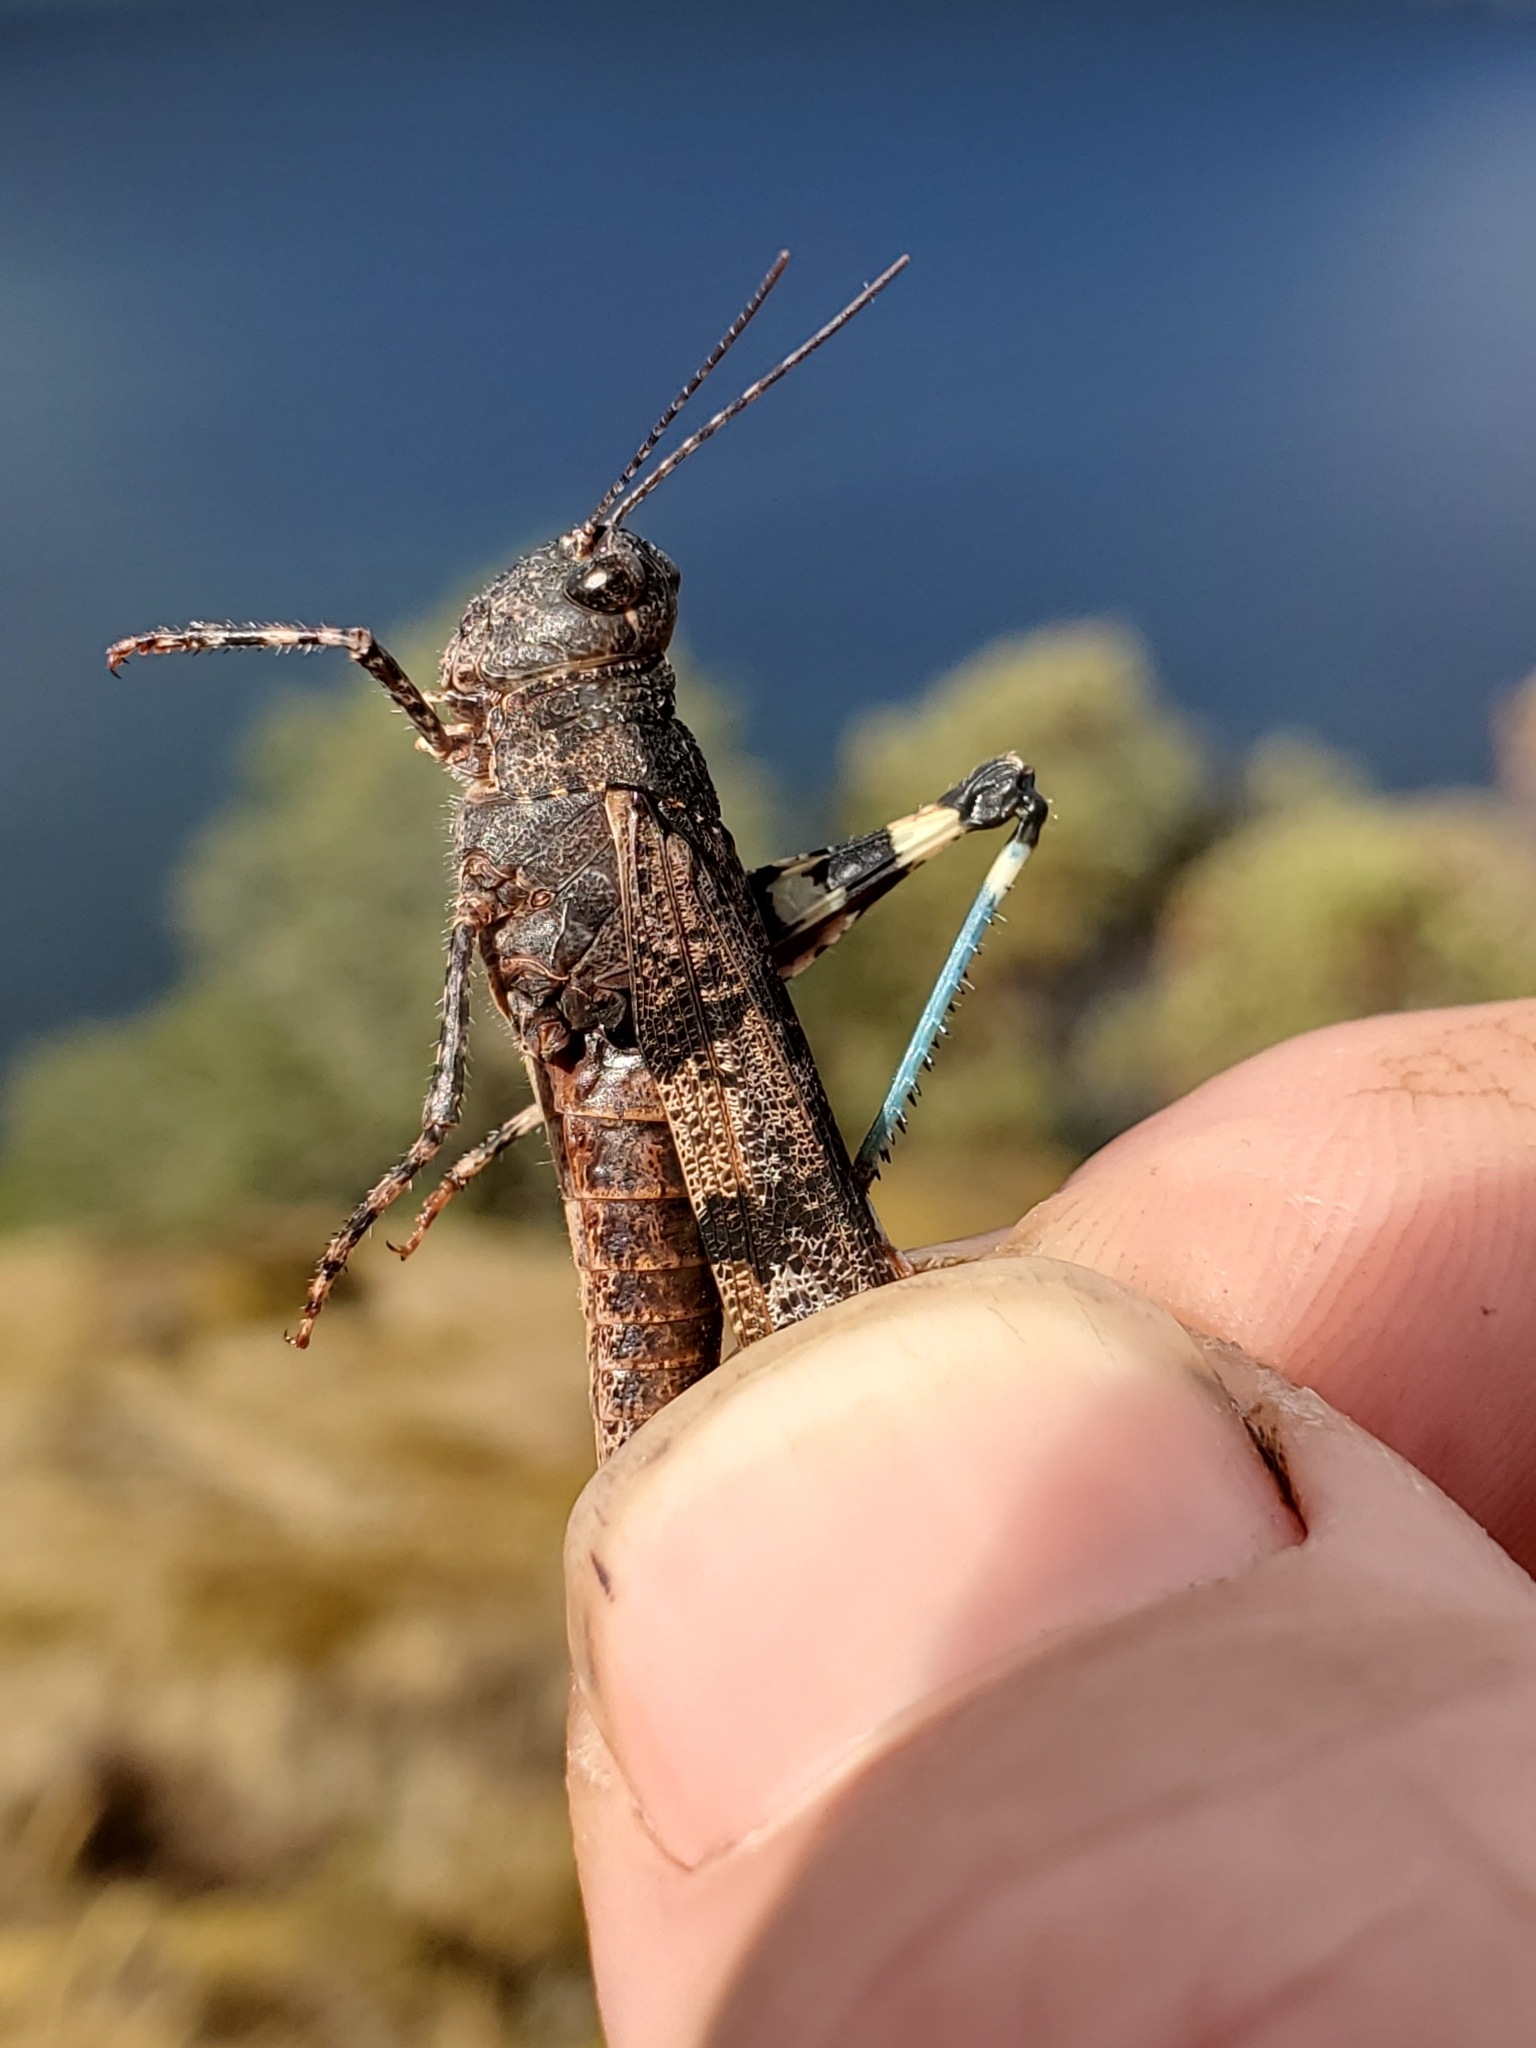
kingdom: Animalia
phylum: Arthropoda
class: Insecta
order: Orthoptera
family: Acrididae
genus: Trimerotropis
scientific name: Trimerotropis fontana
